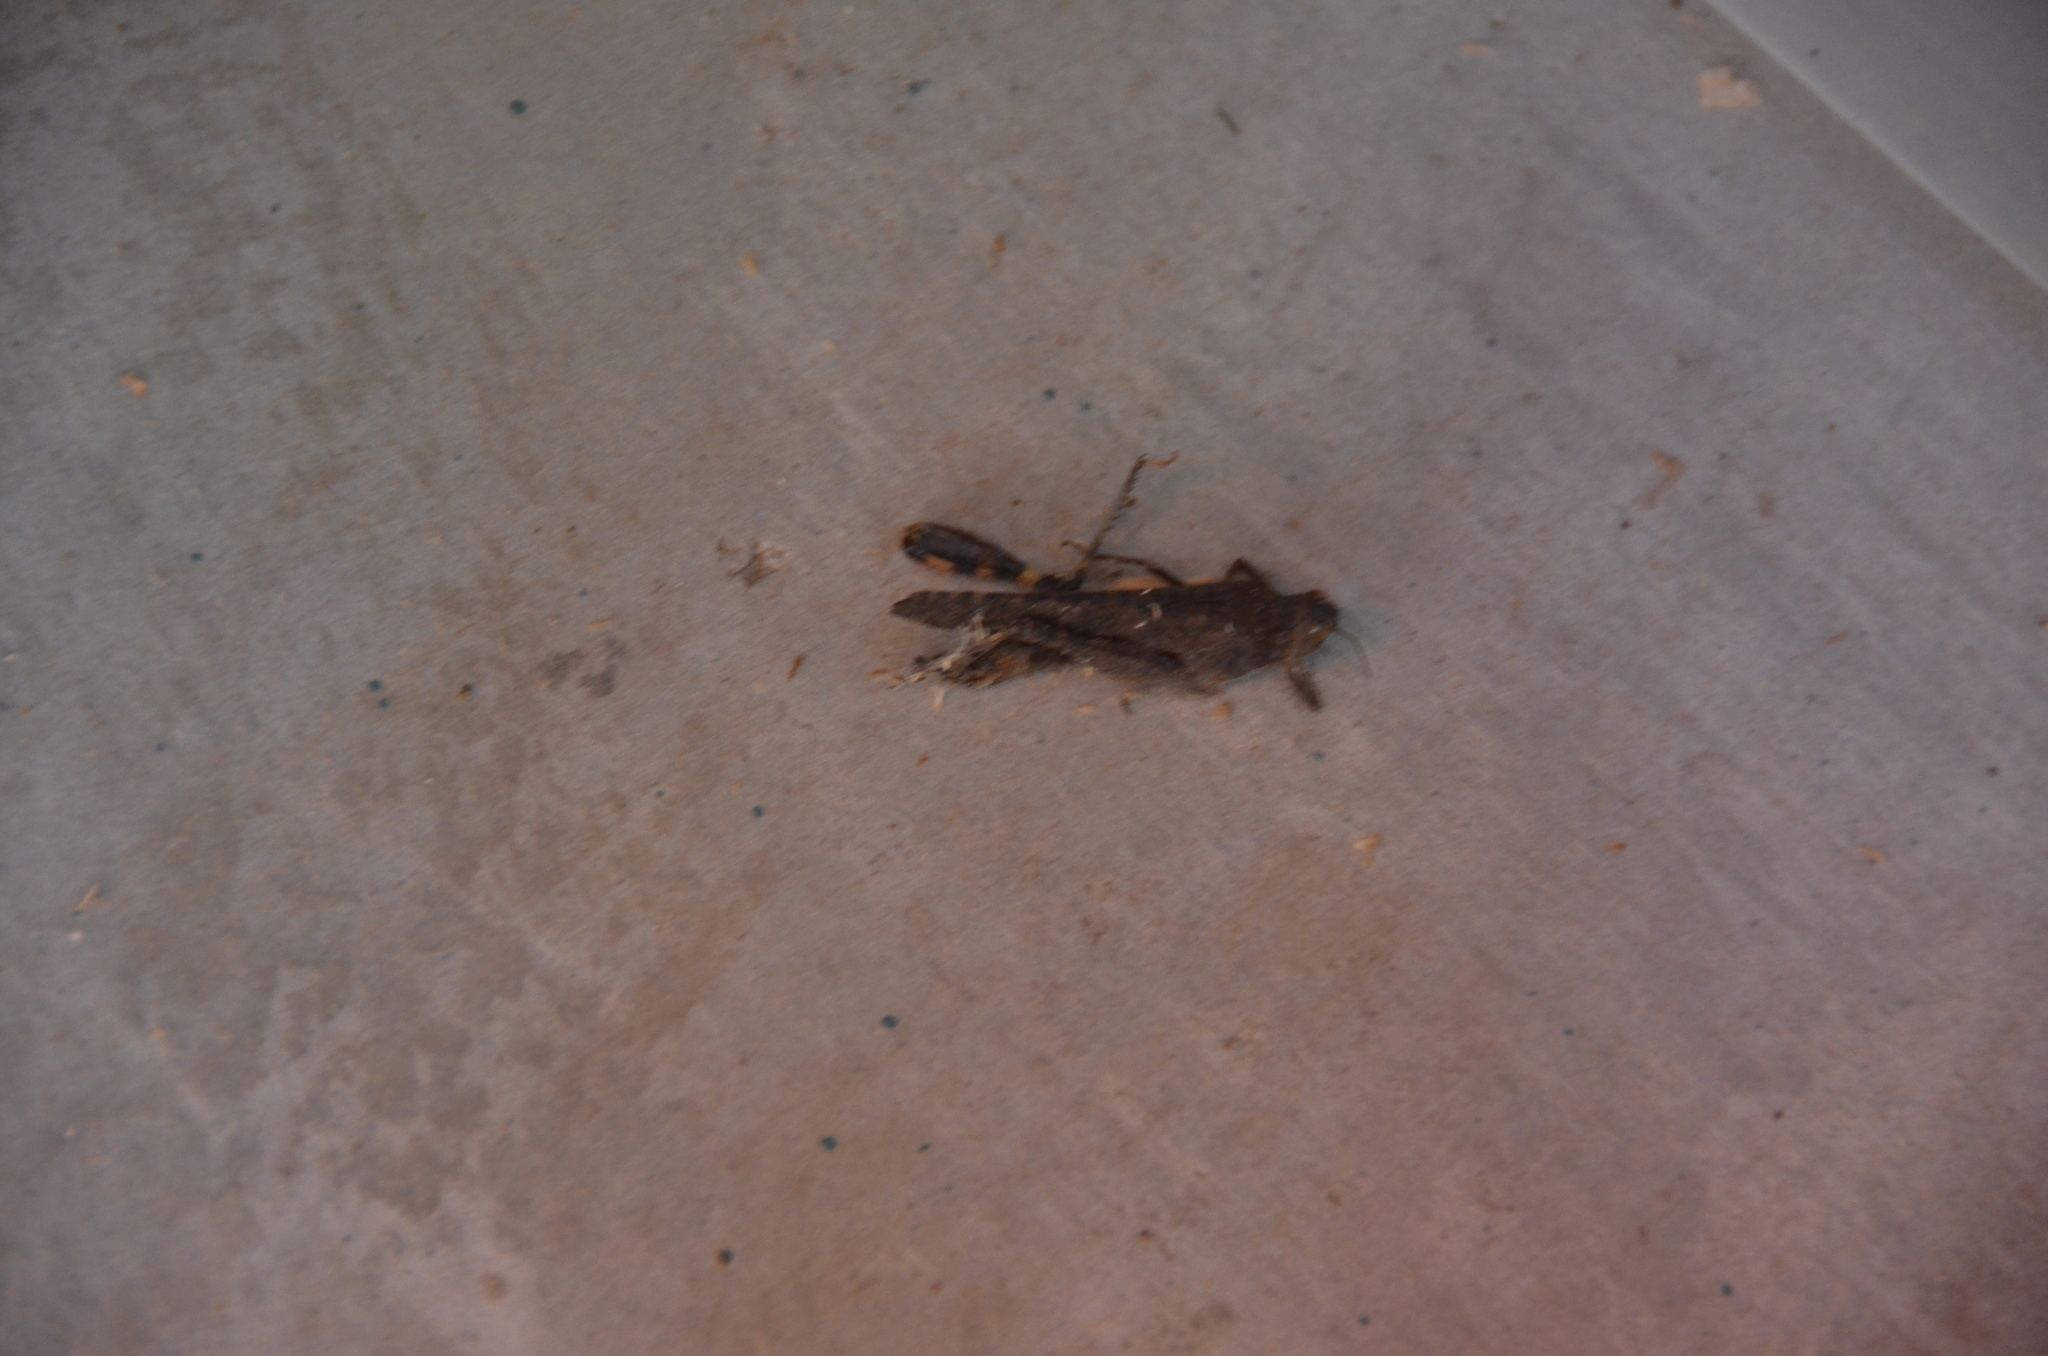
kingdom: Animalia
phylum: Arthropoda
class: Insecta
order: Orthoptera
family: Acrididae
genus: Trimerotropis
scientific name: Trimerotropis verruculata
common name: Crackling forest grasshopper
